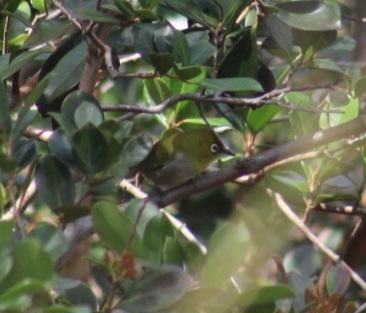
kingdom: Animalia
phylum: Chordata
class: Aves
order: Passeriformes
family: Zosteropidae
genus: Zosterops
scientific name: Zosterops japonicus
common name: Japanese white-eye
